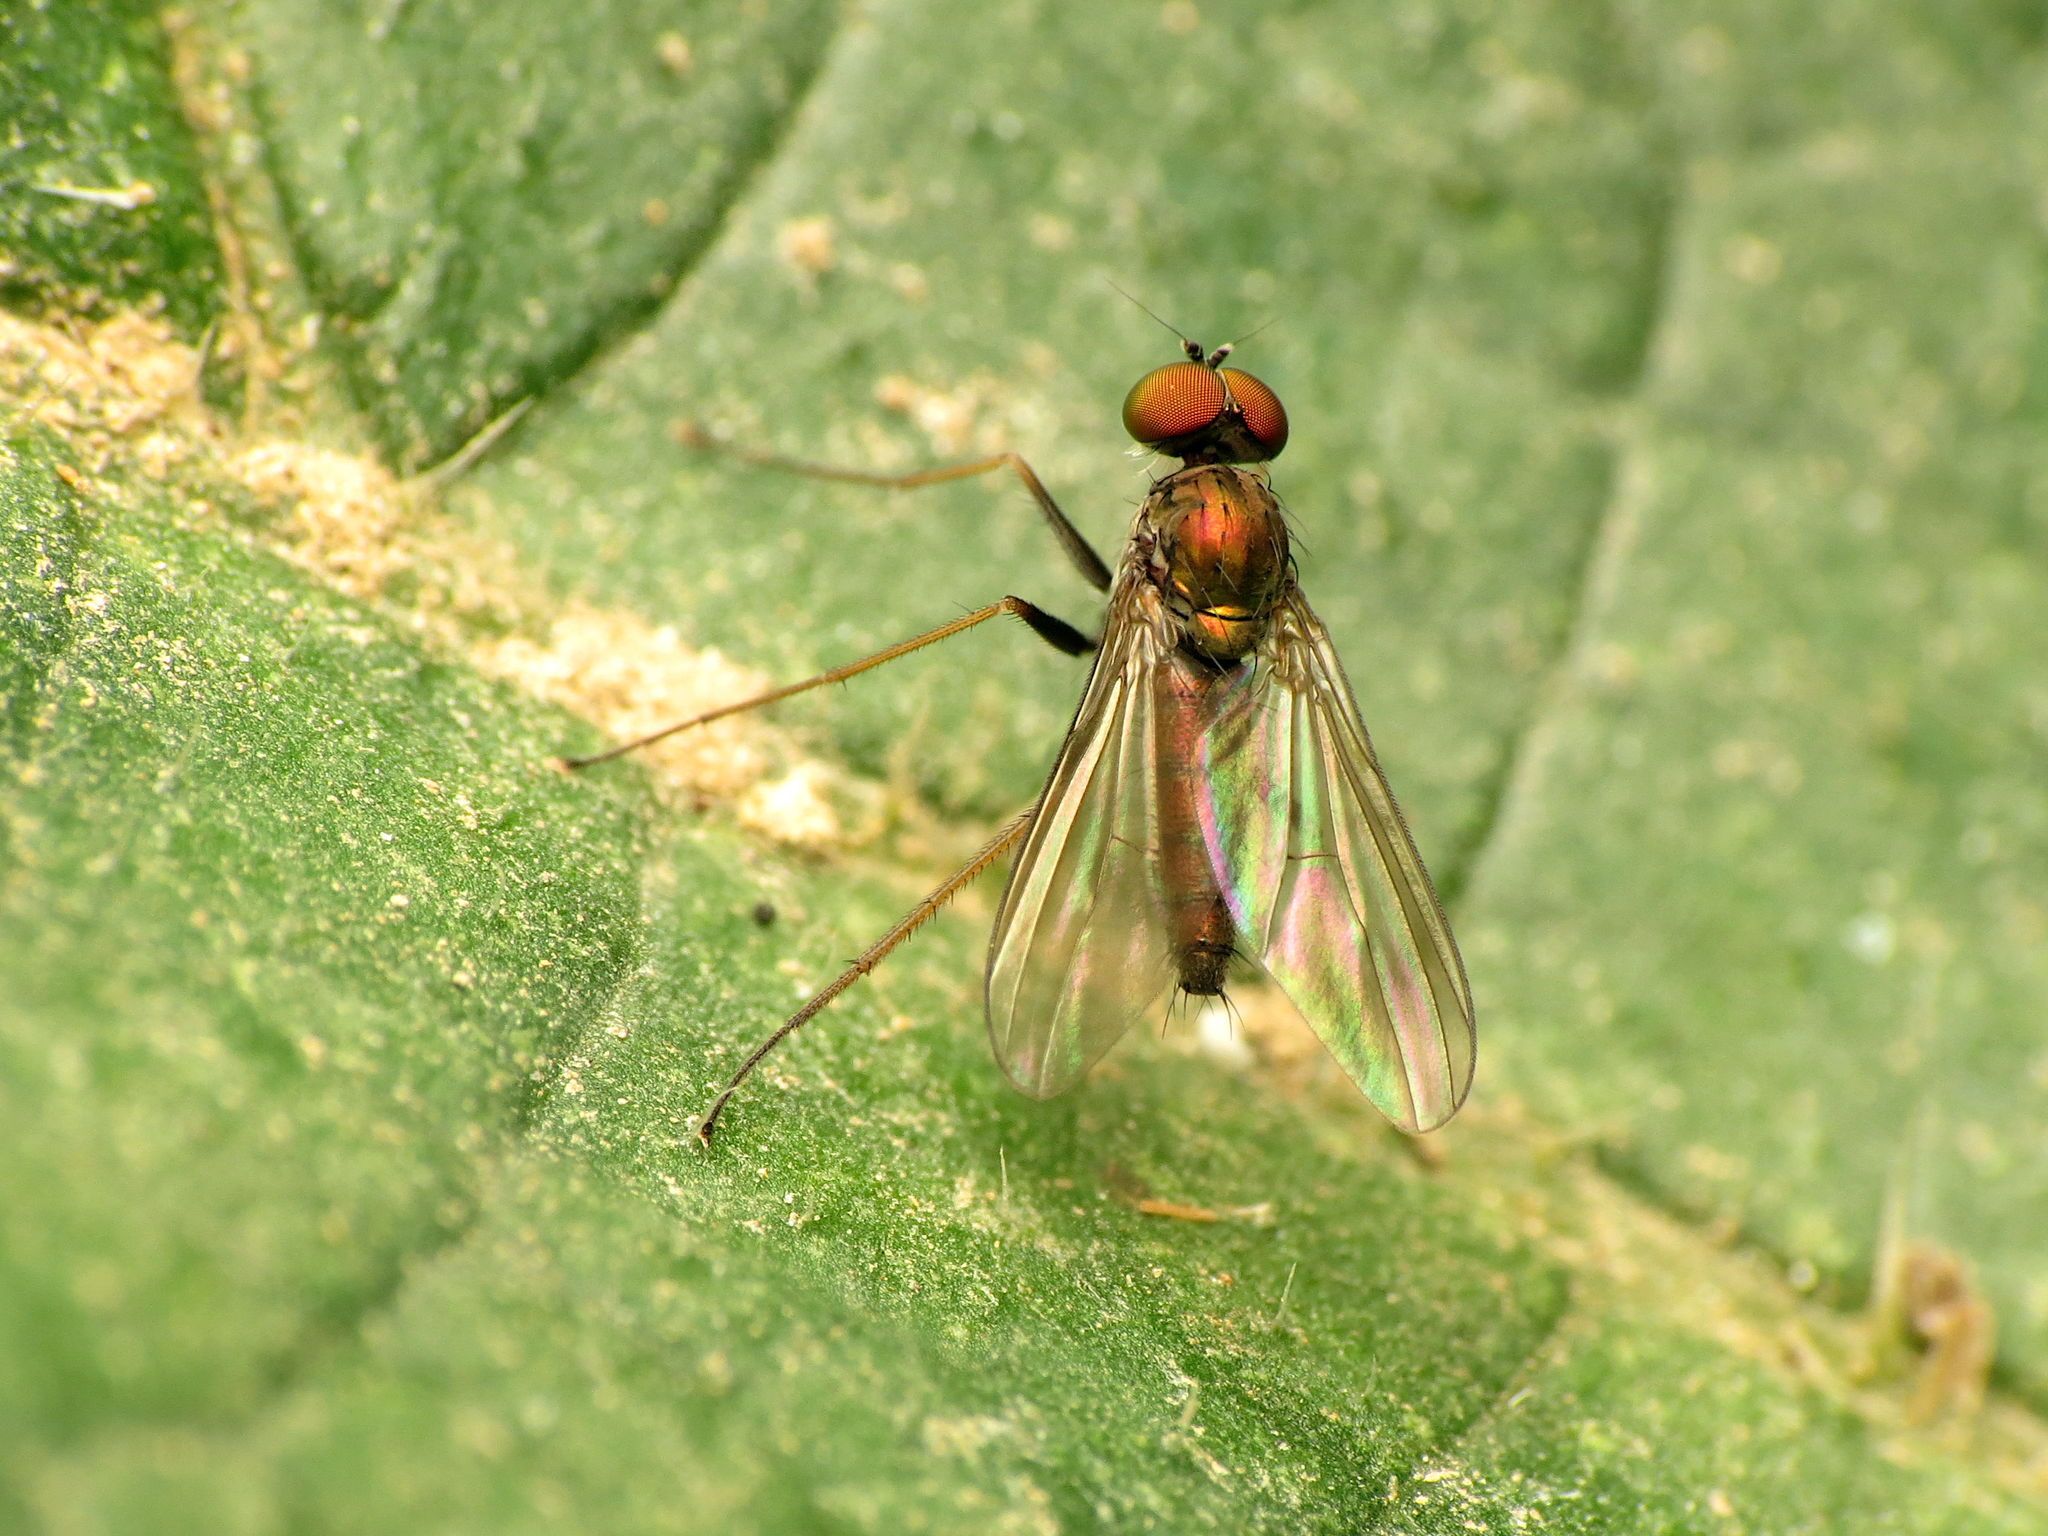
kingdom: Animalia
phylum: Arthropoda
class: Insecta
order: Diptera
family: Dolichopodidae
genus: Chrysotus
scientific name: Chrysotus spectabilis
